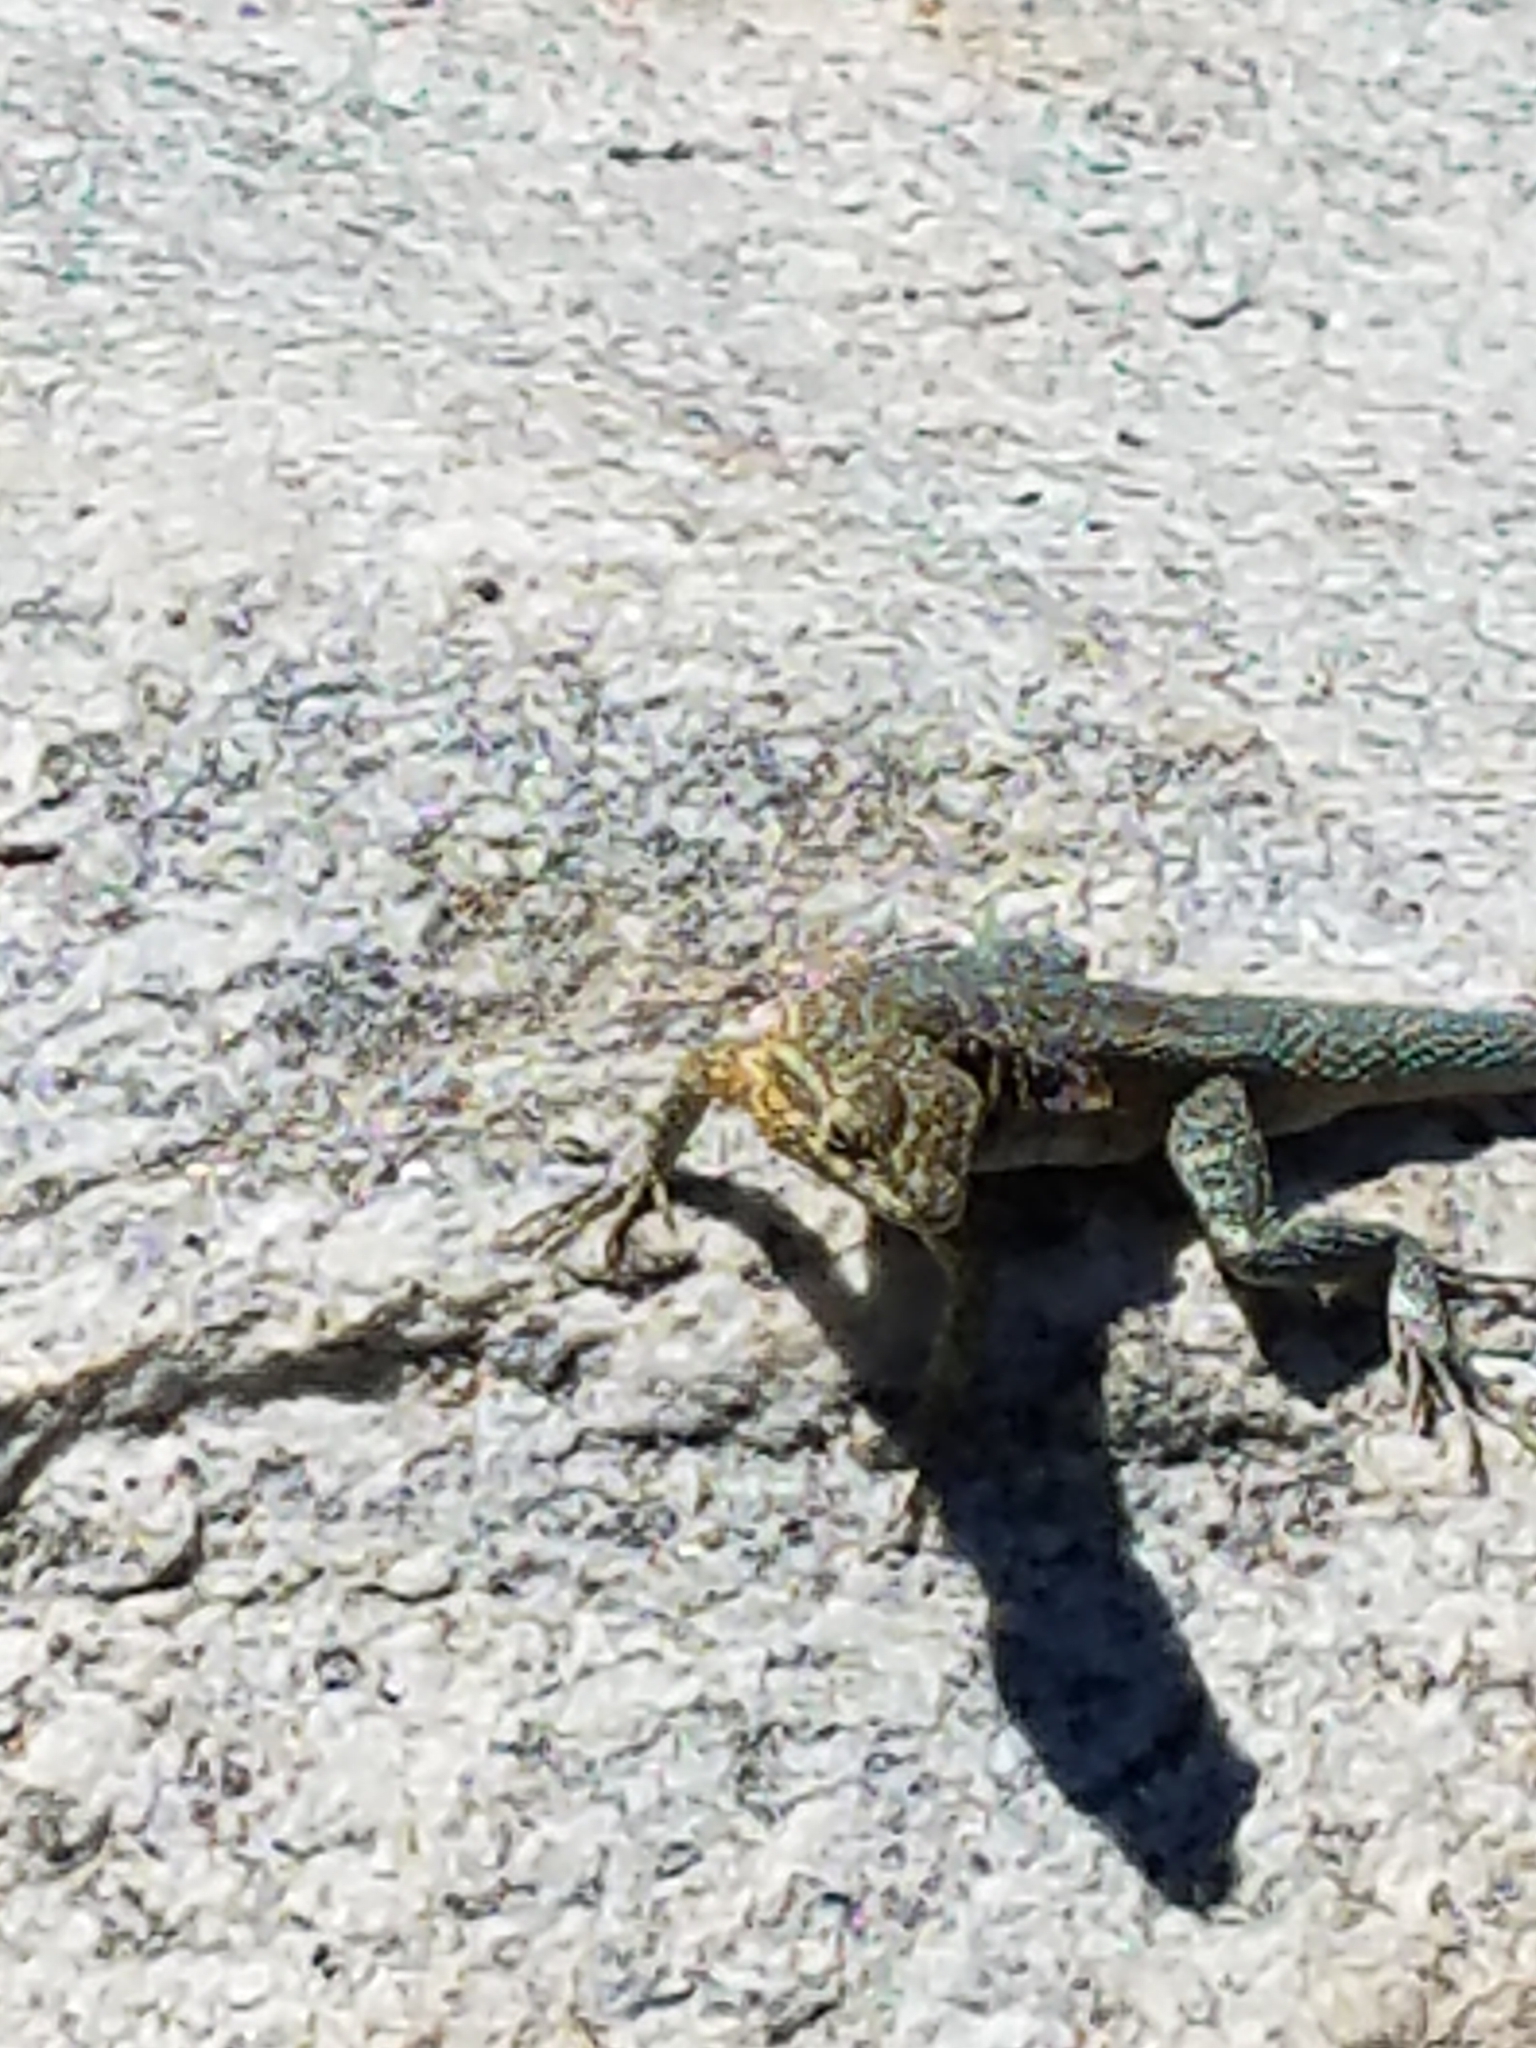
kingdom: Animalia
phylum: Chordata
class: Squamata
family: Phrynosomatidae
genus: Uta
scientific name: Uta stansburiana
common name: Side-blotched lizard
